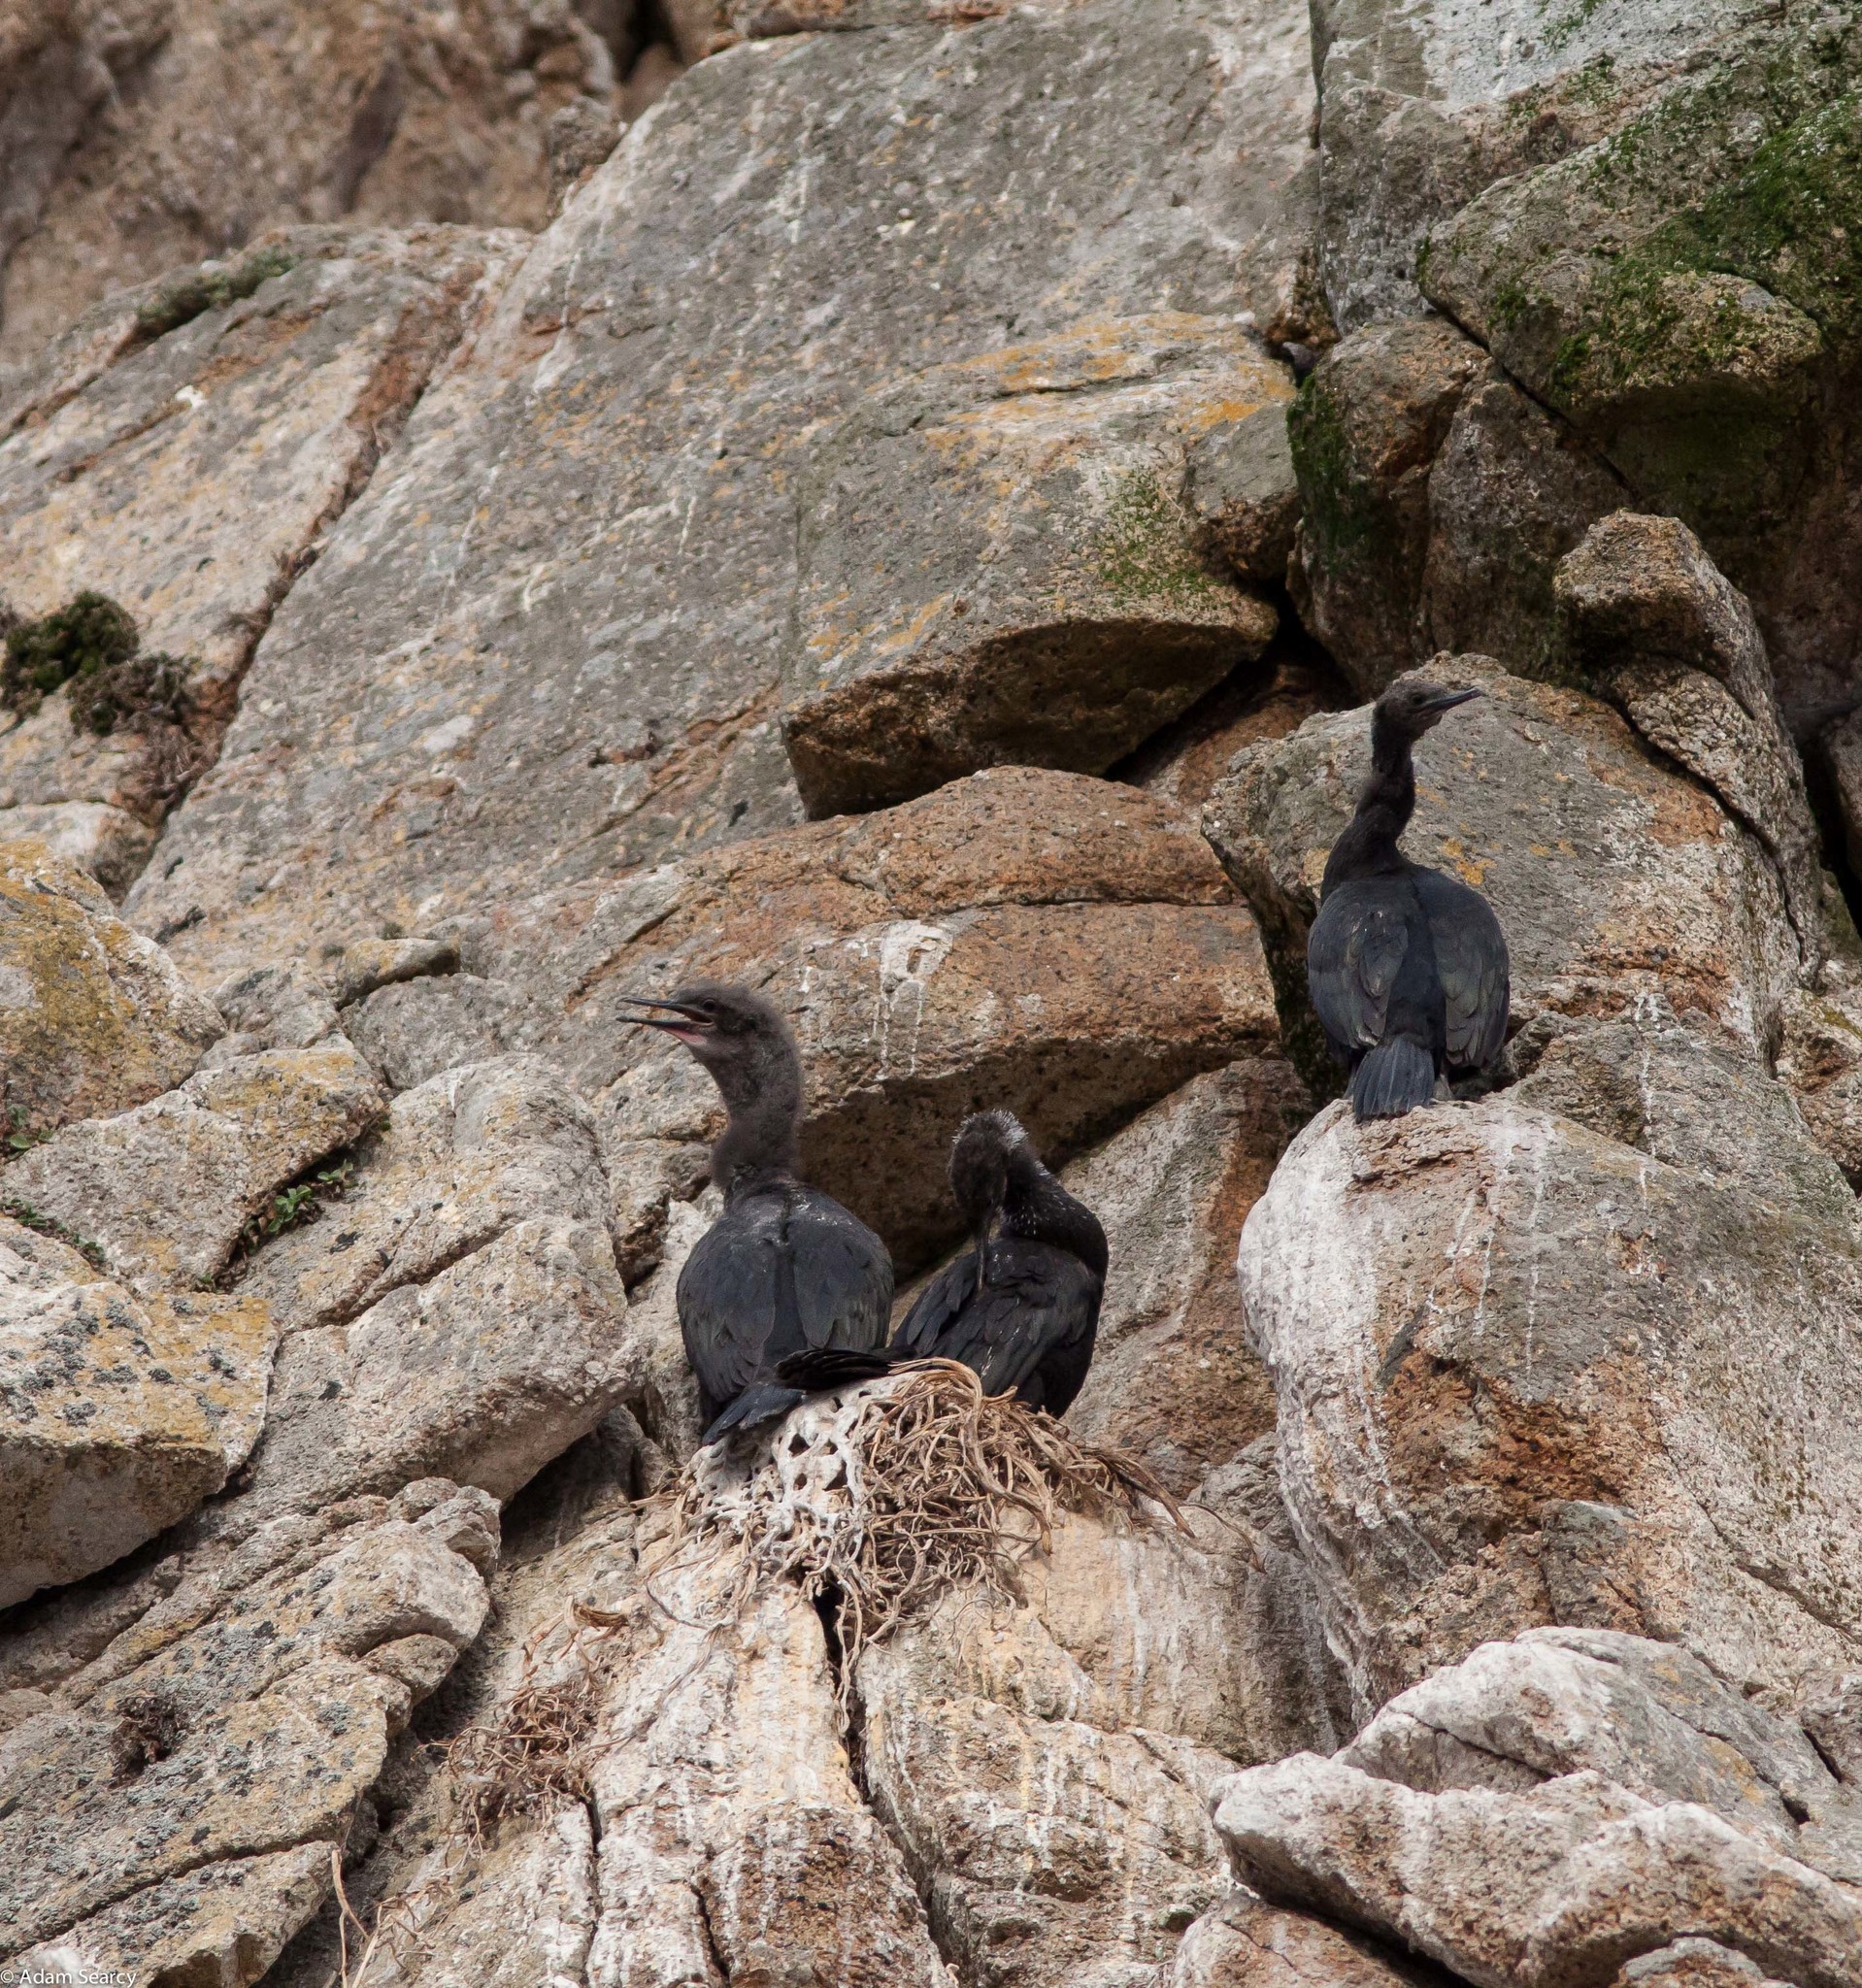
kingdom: Animalia
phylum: Chordata
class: Aves
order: Suliformes
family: Phalacrocoracidae
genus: Phalacrocorax
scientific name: Phalacrocorax pelagicus
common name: Pelagic cormorant
